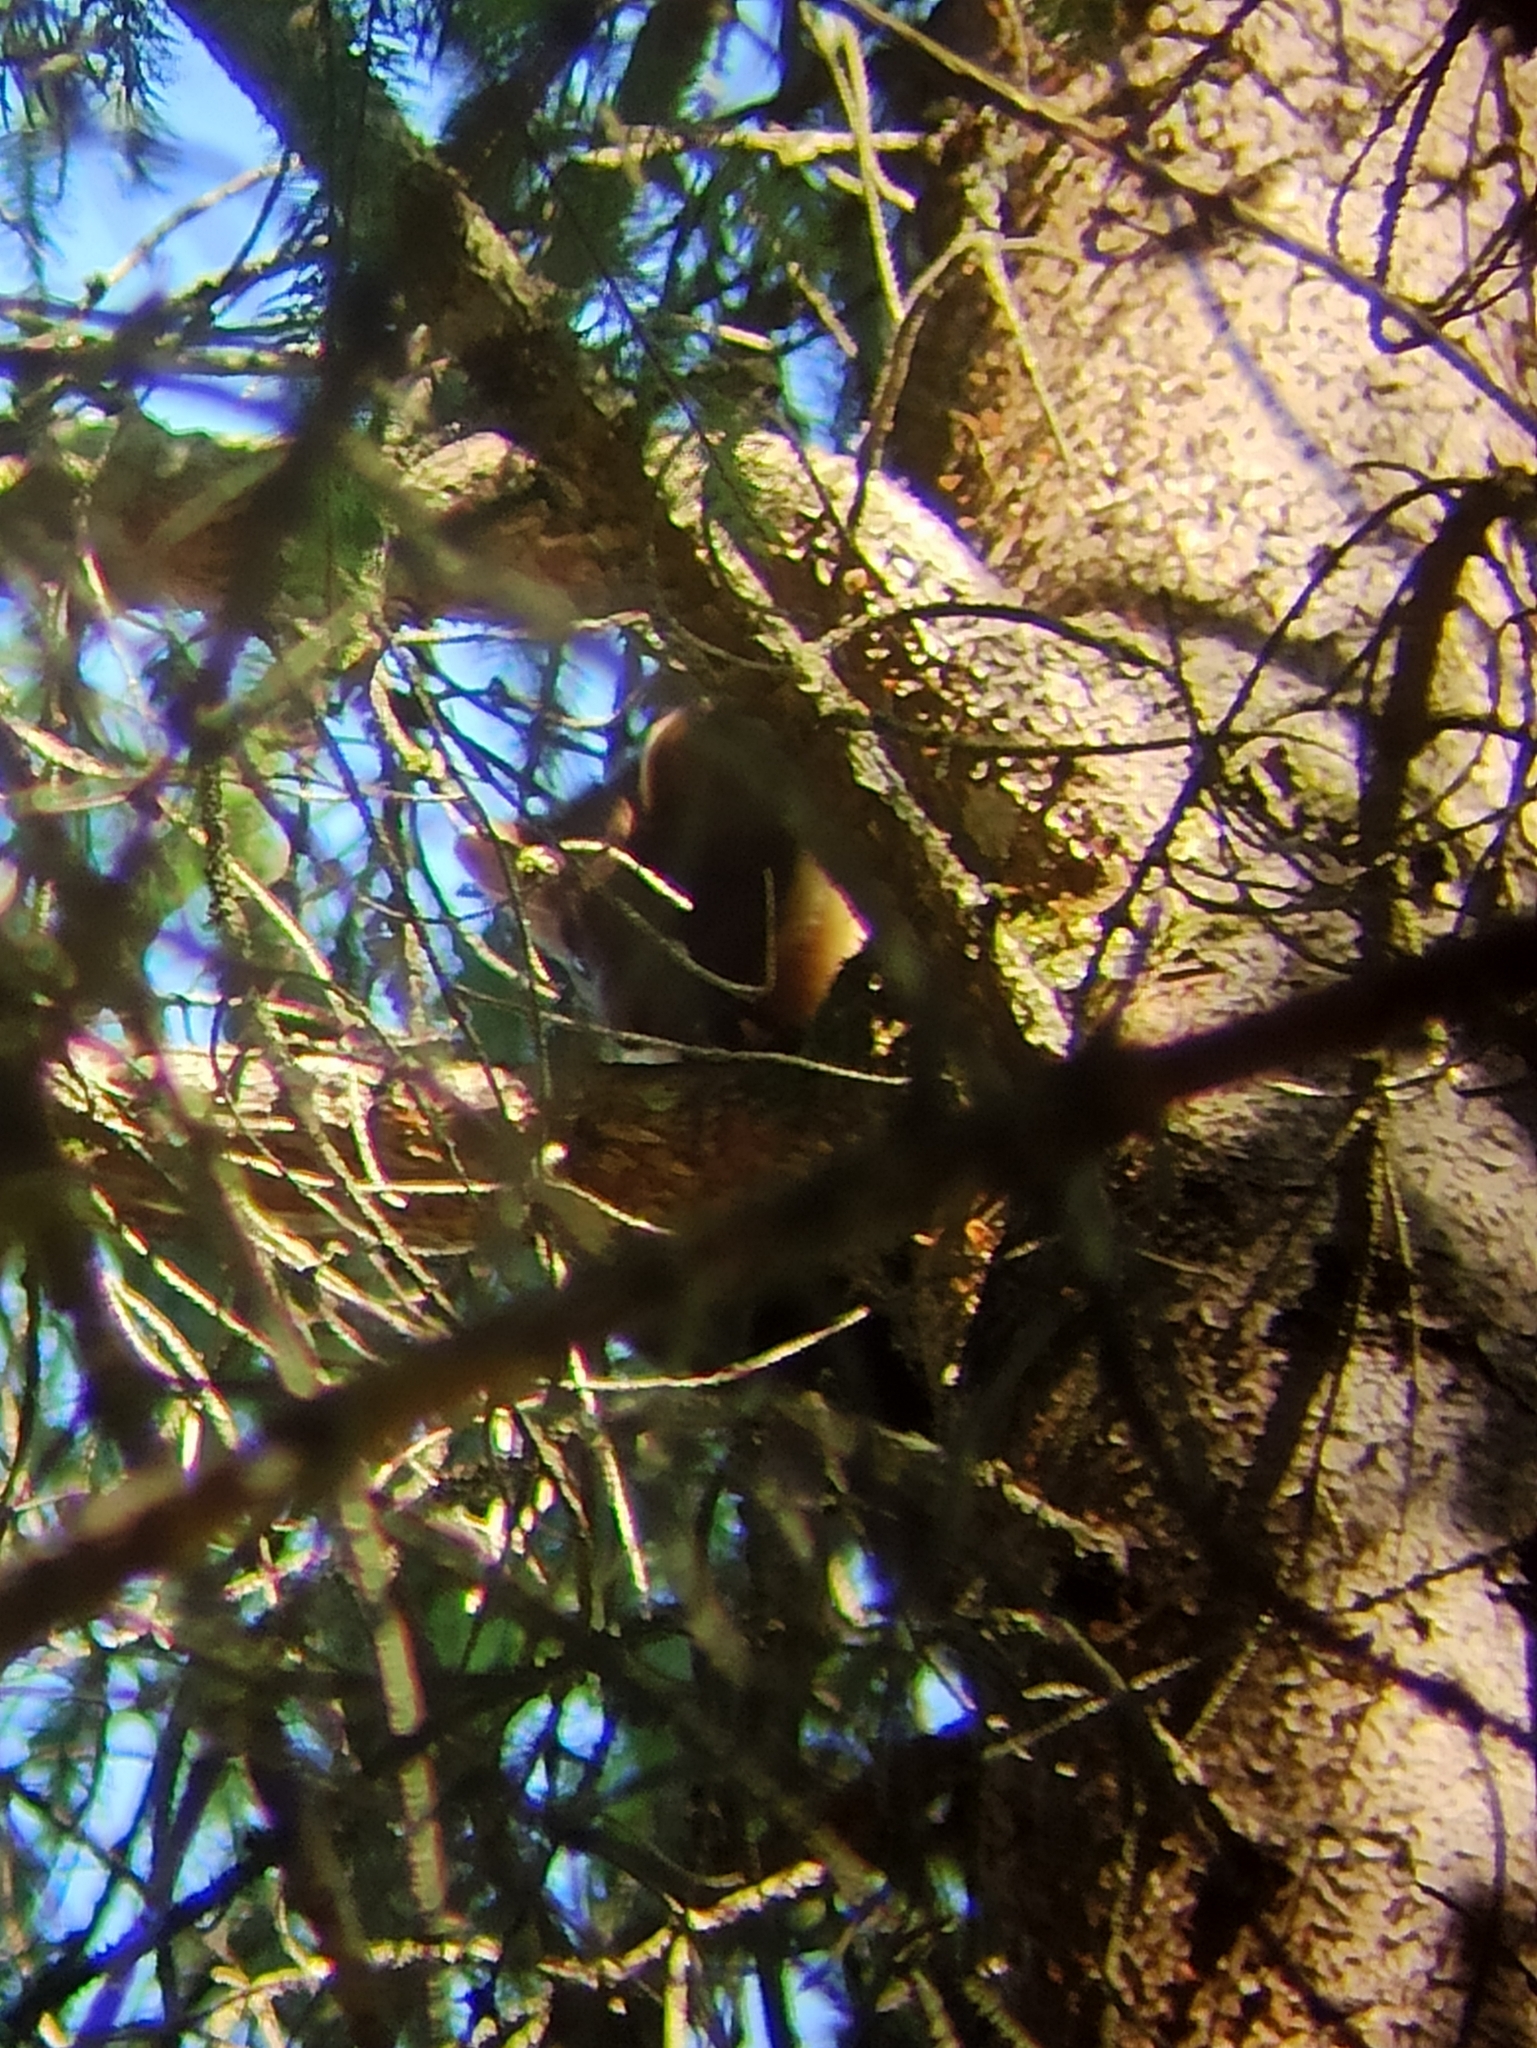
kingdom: Animalia
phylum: Chordata
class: Mammalia
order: Carnivora
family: Mustelidae
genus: Martes
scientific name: Martes martes
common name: European pine marten
